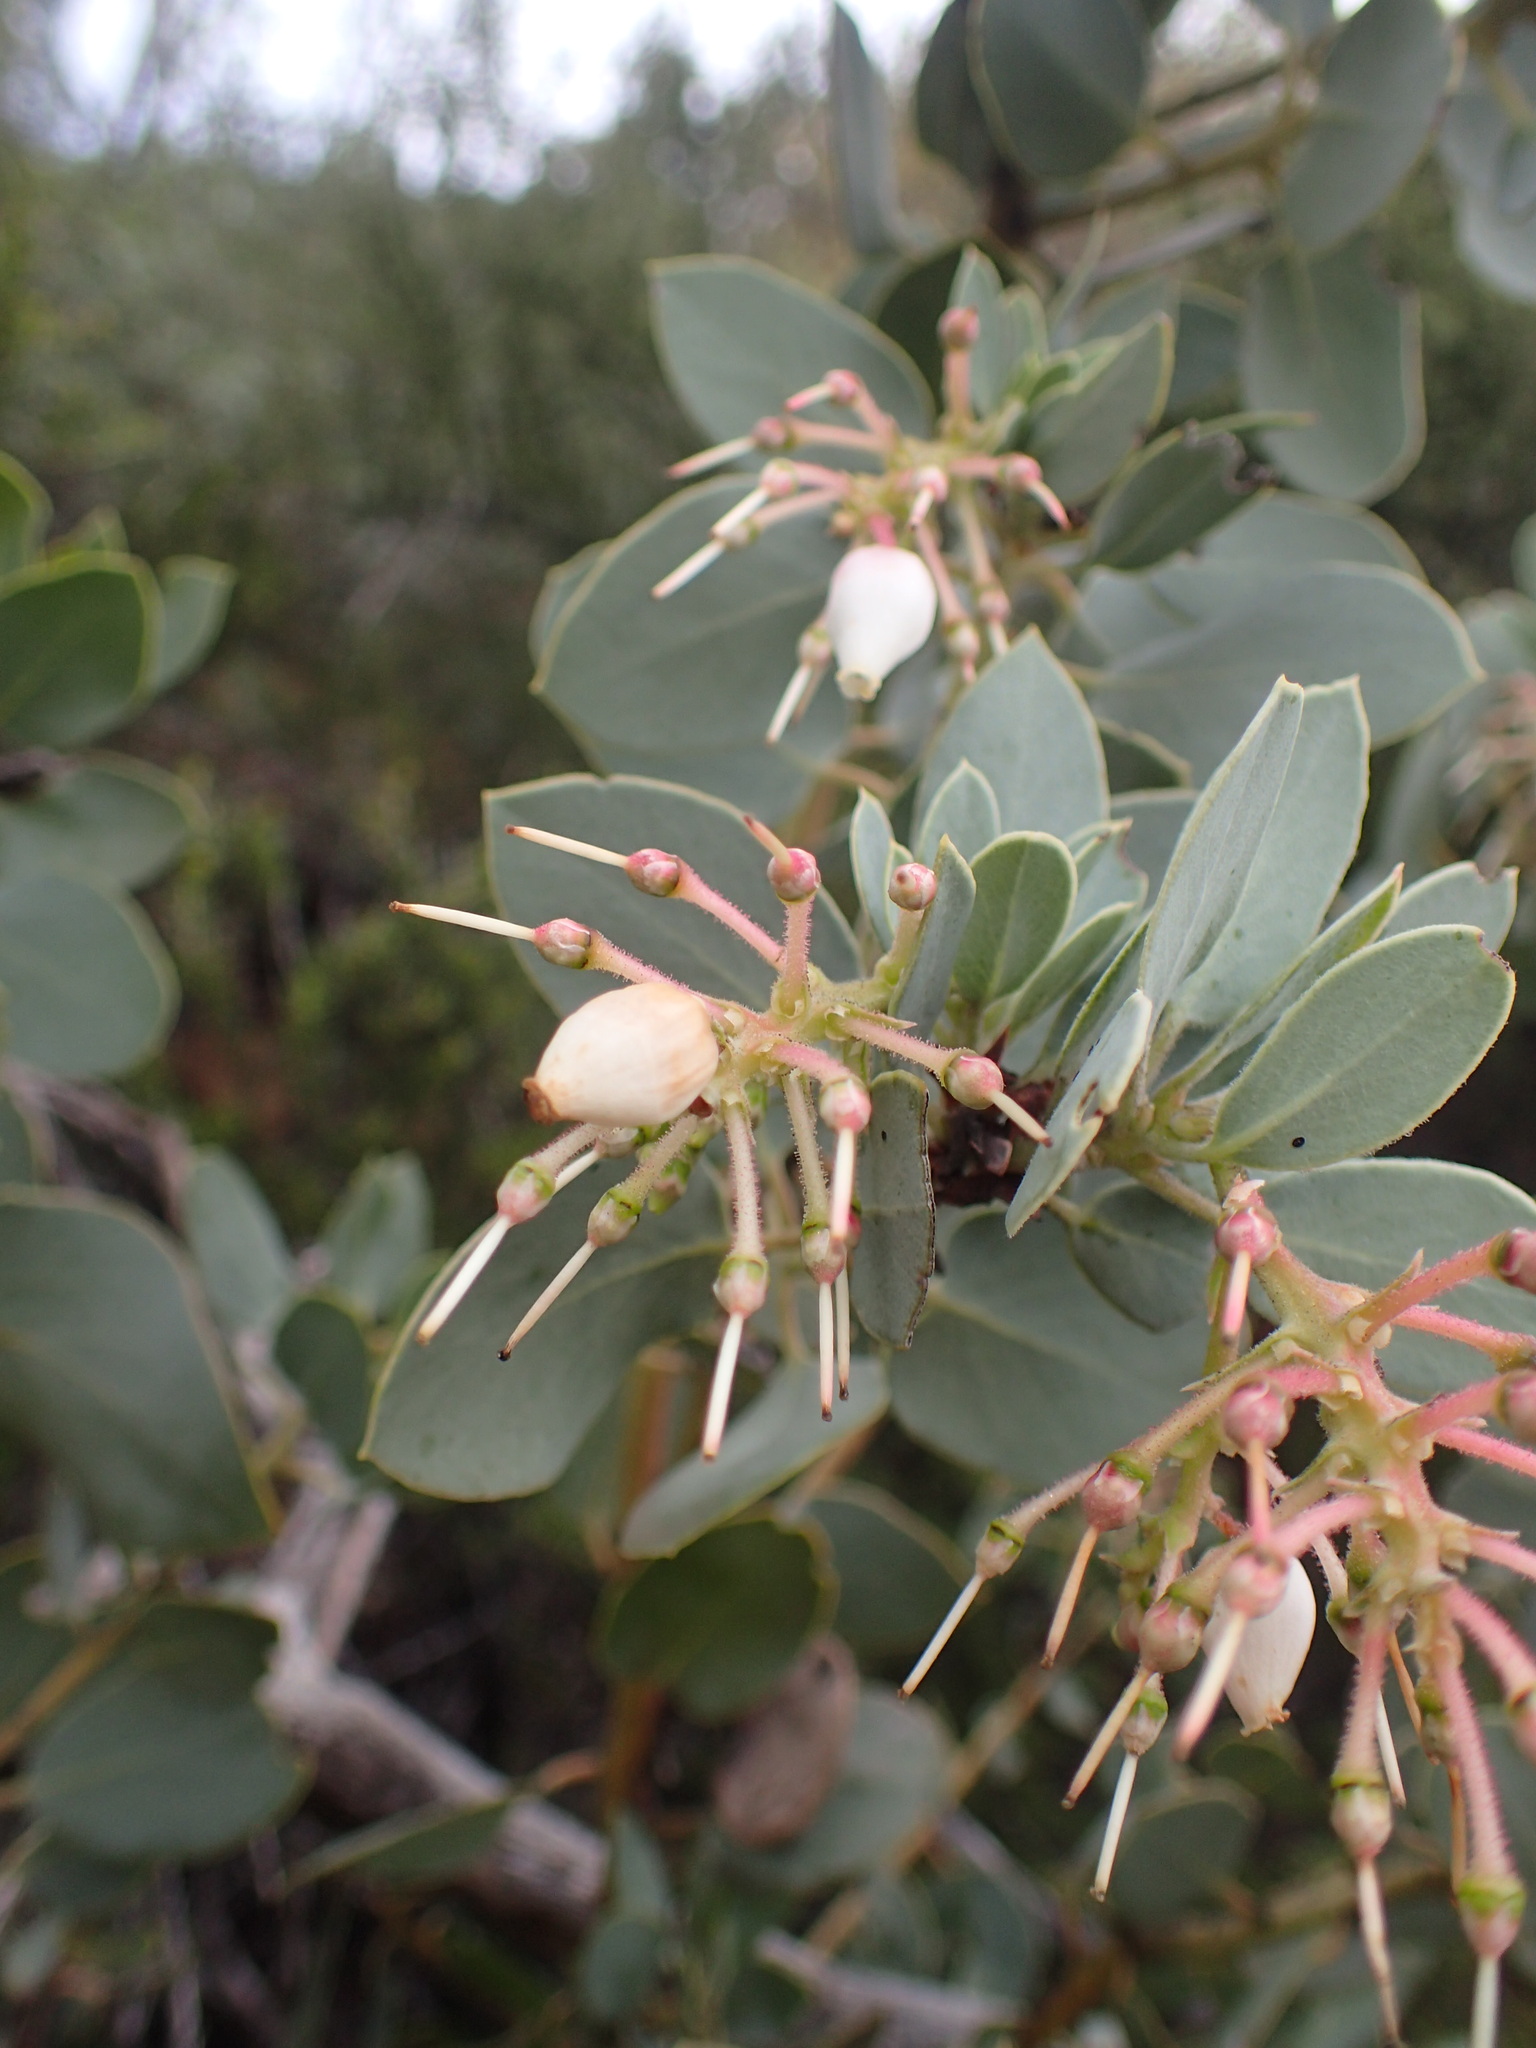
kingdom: Plantae
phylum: Tracheophyta
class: Magnoliopsida
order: Ericales
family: Ericaceae
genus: Arctostaphylos
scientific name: Arctostaphylos glauca
